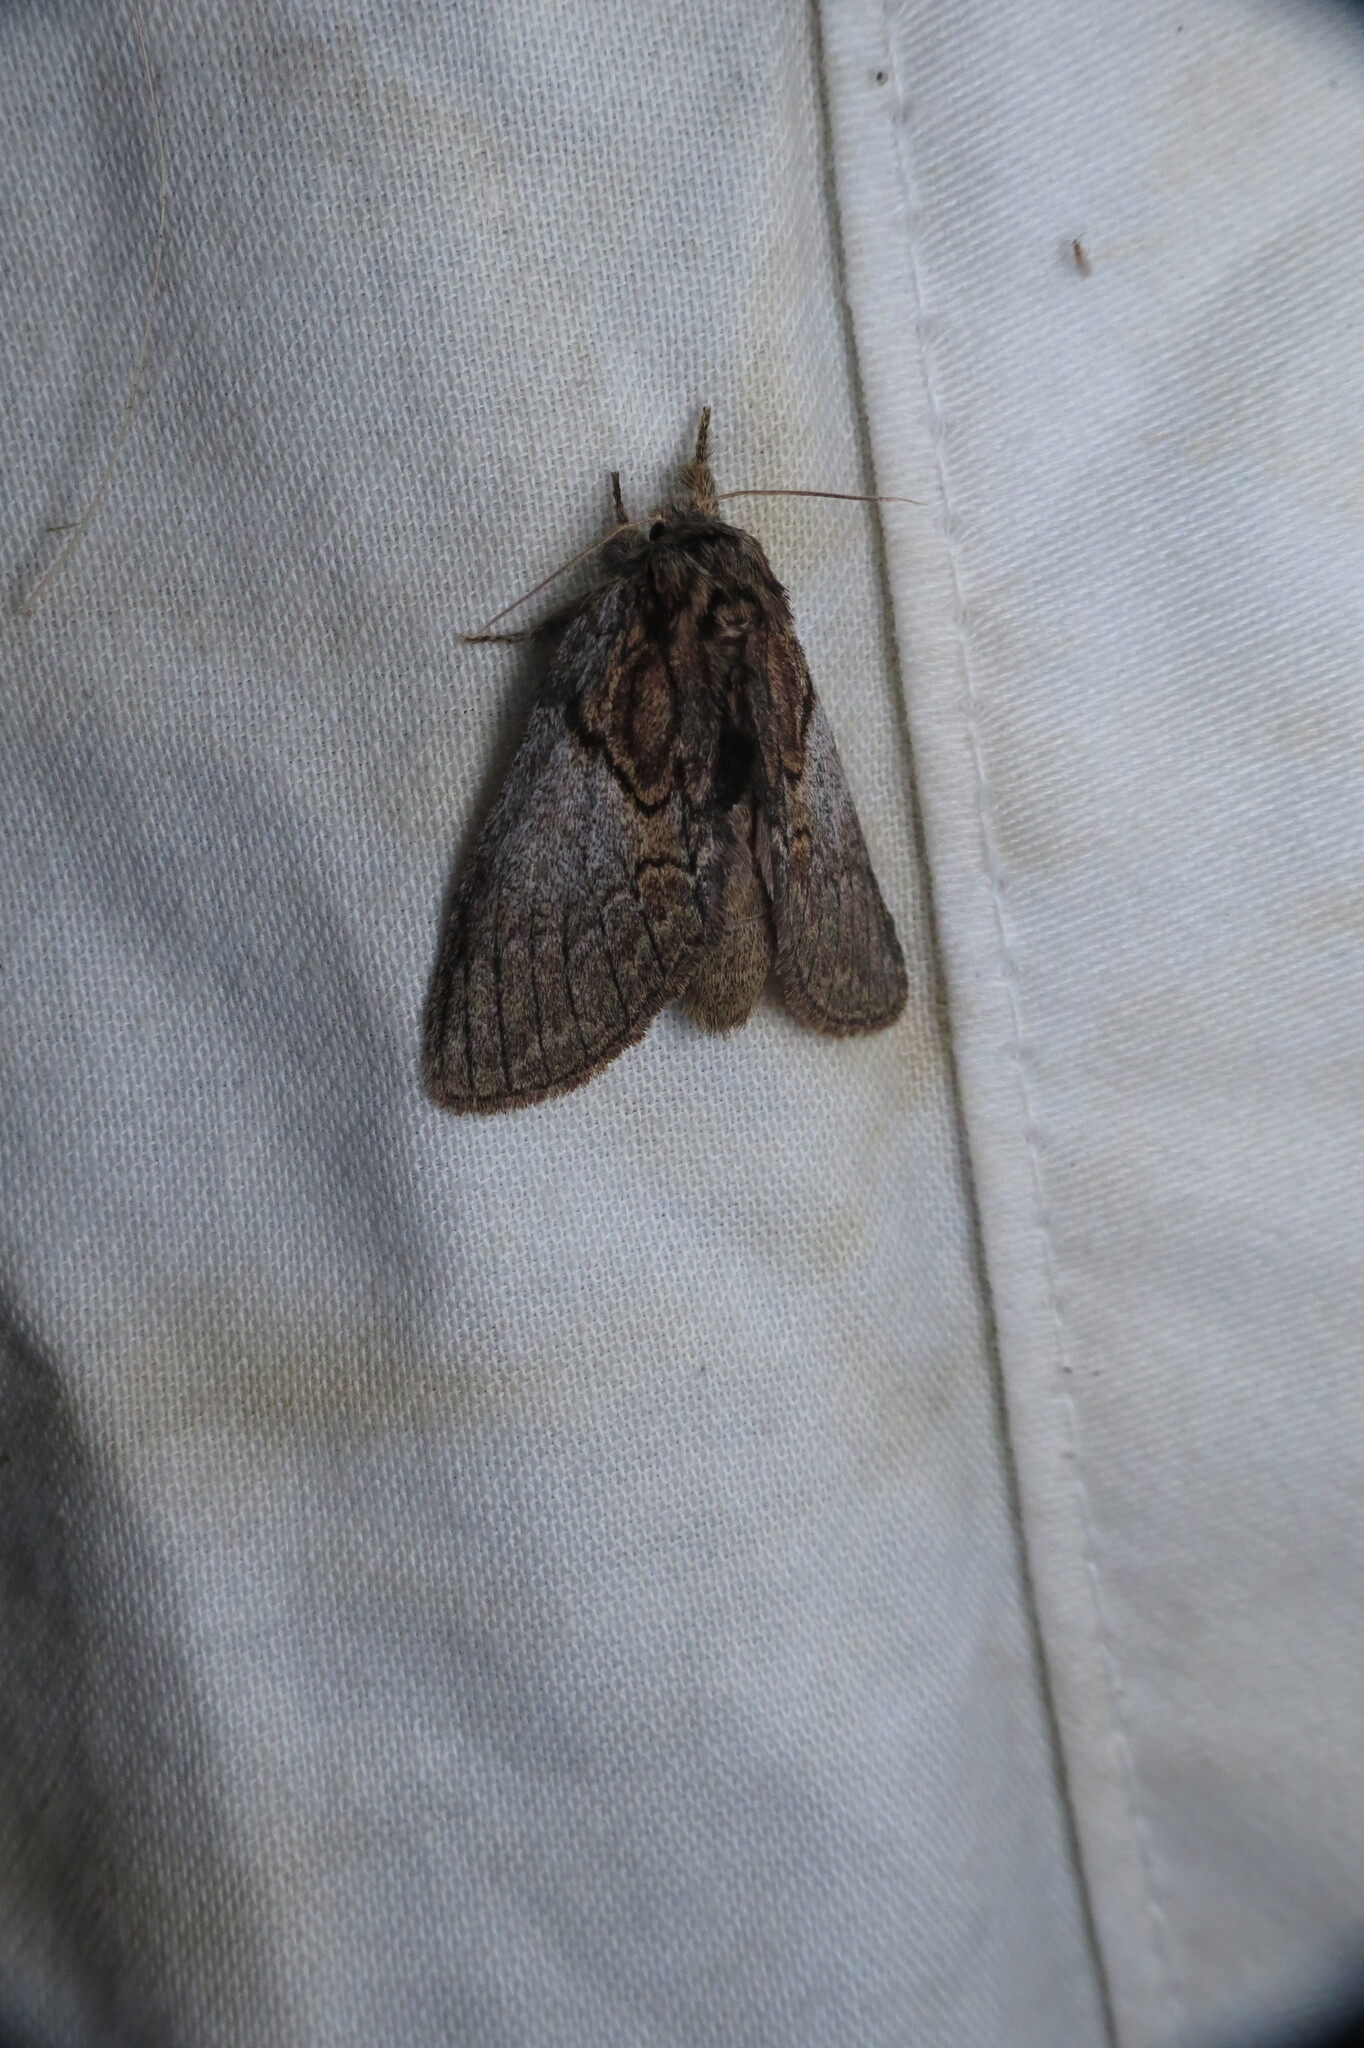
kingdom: Animalia
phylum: Arthropoda
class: Insecta
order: Lepidoptera
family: Notodontidae
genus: Peridea
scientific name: Peridea basitriens
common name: Oval-based prominent
